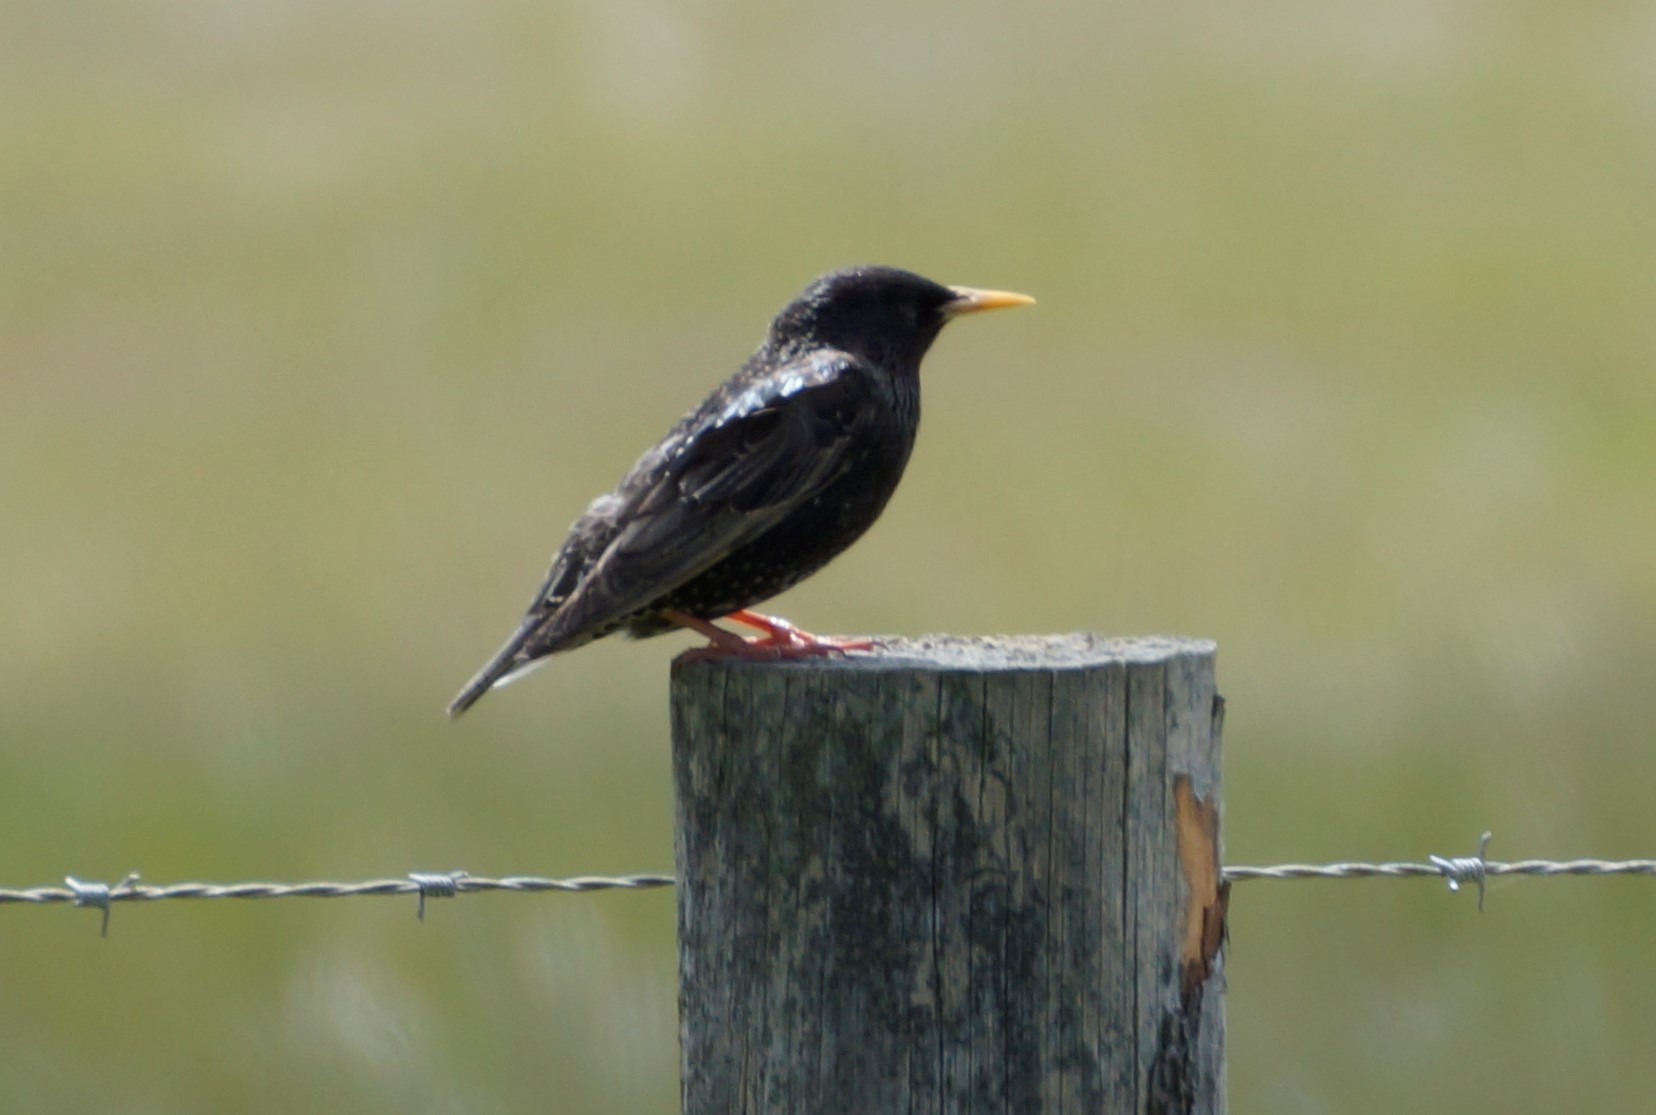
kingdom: Animalia
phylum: Chordata
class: Aves
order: Passeriformes
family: Sturnidae
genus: Sturnus
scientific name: Sturnus vulgaris
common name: Common starling
